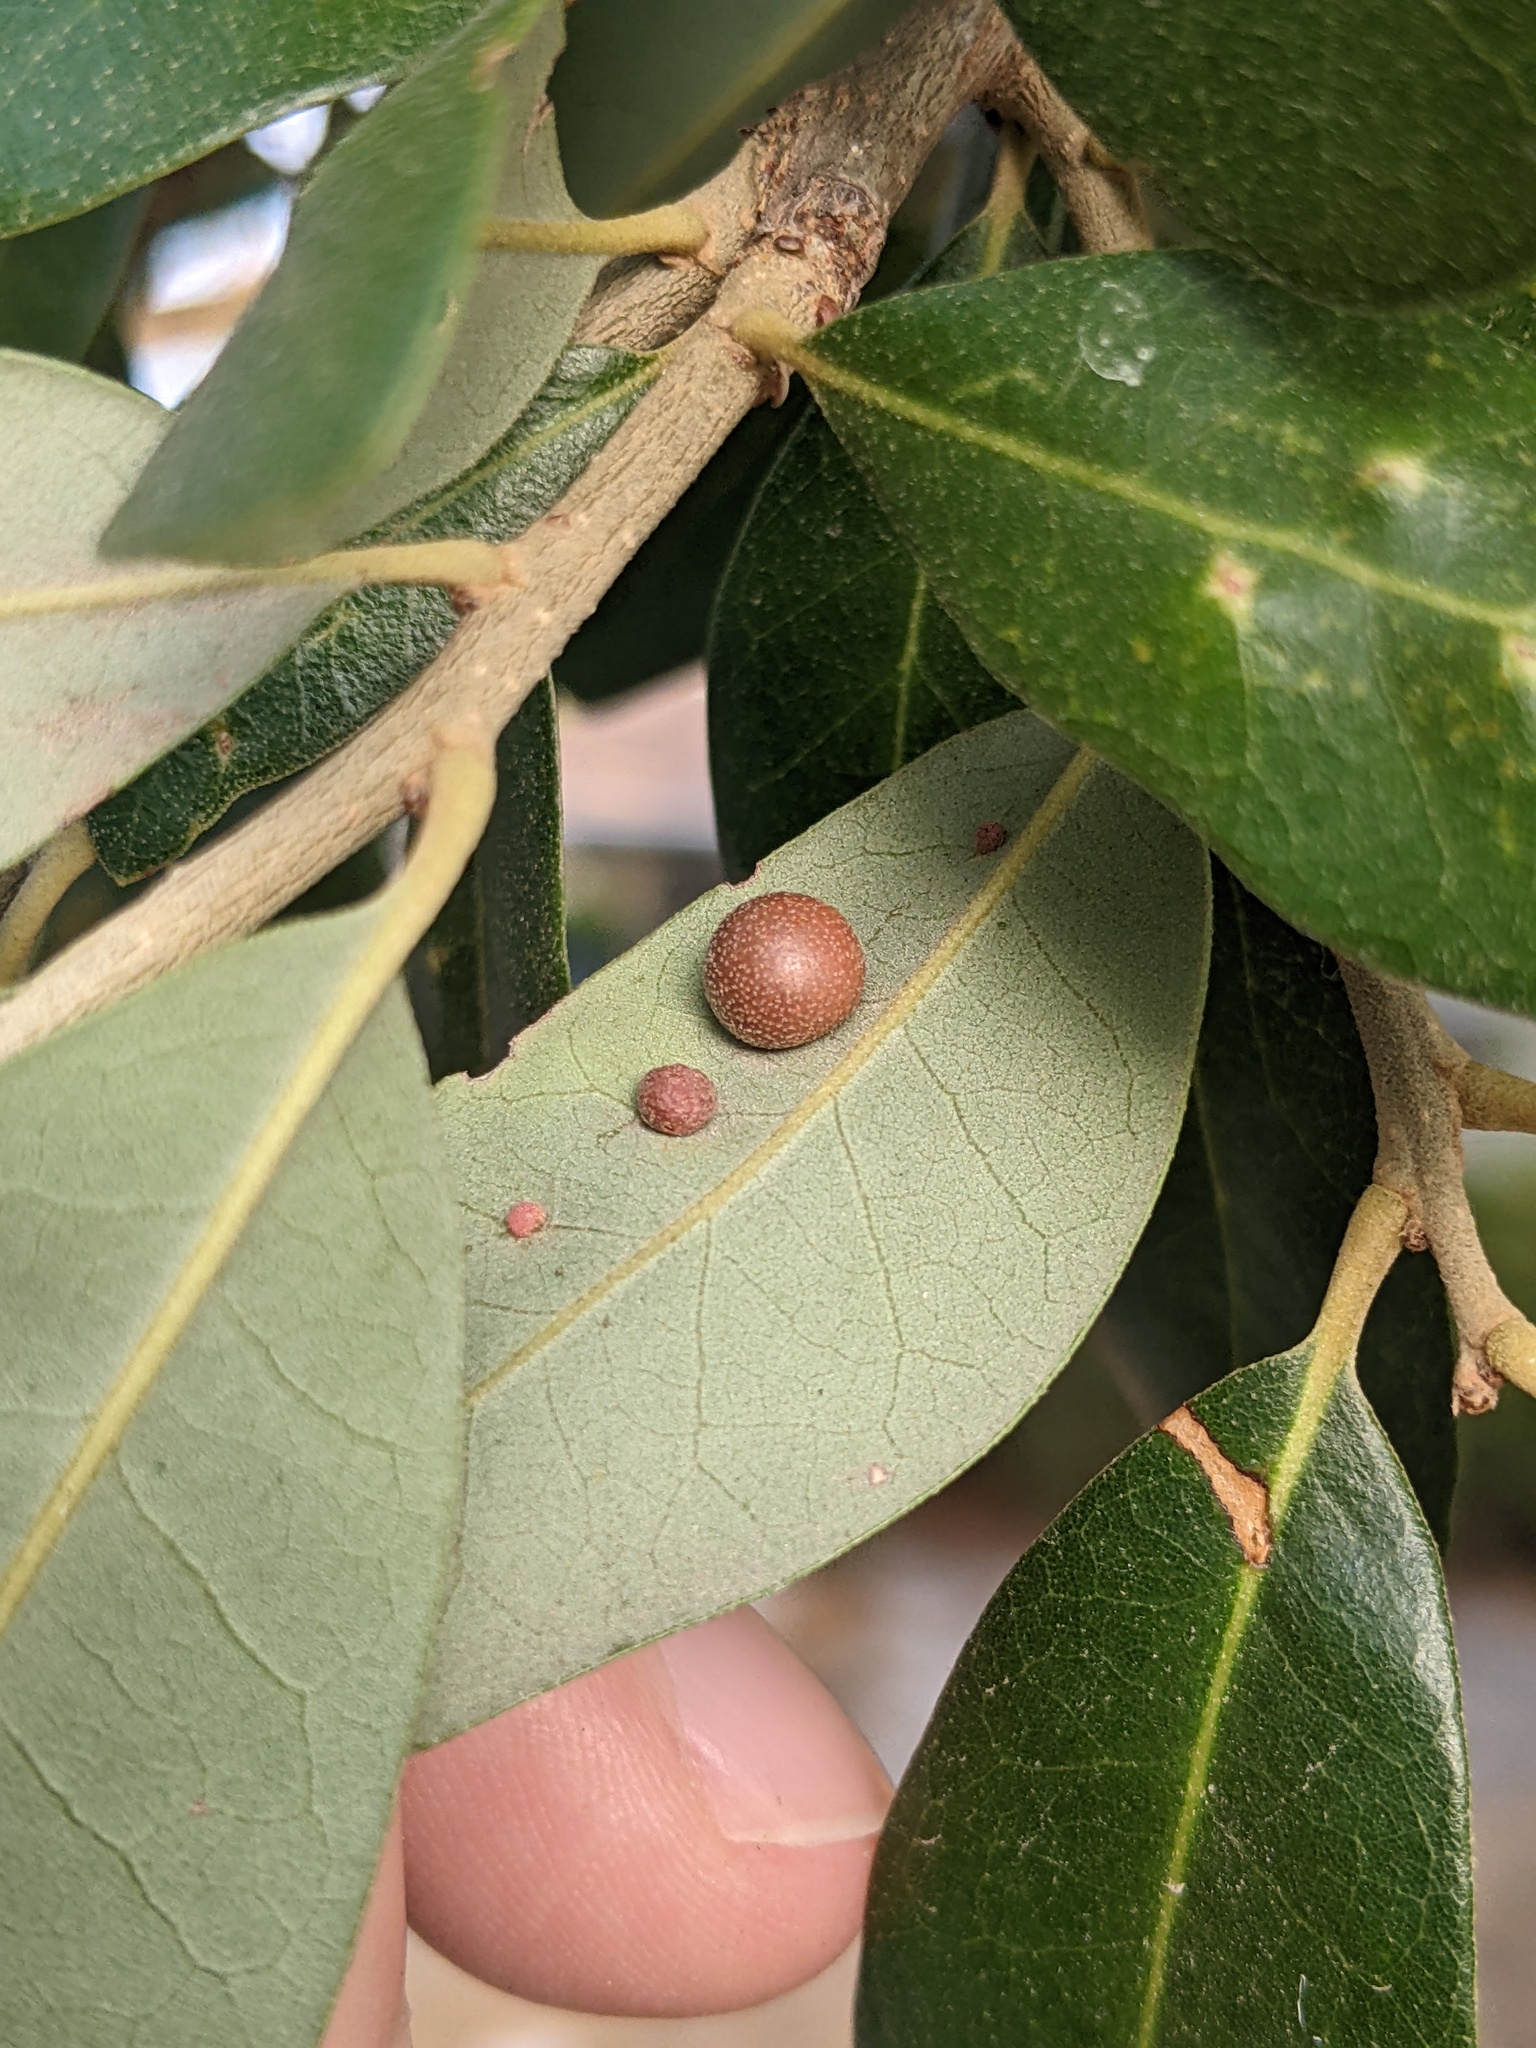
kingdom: Animalia
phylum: Arthropoda
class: Insecta
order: Hymenoptera
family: Cynipidae
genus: Belonocnema
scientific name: Belonocnema kinseyi
